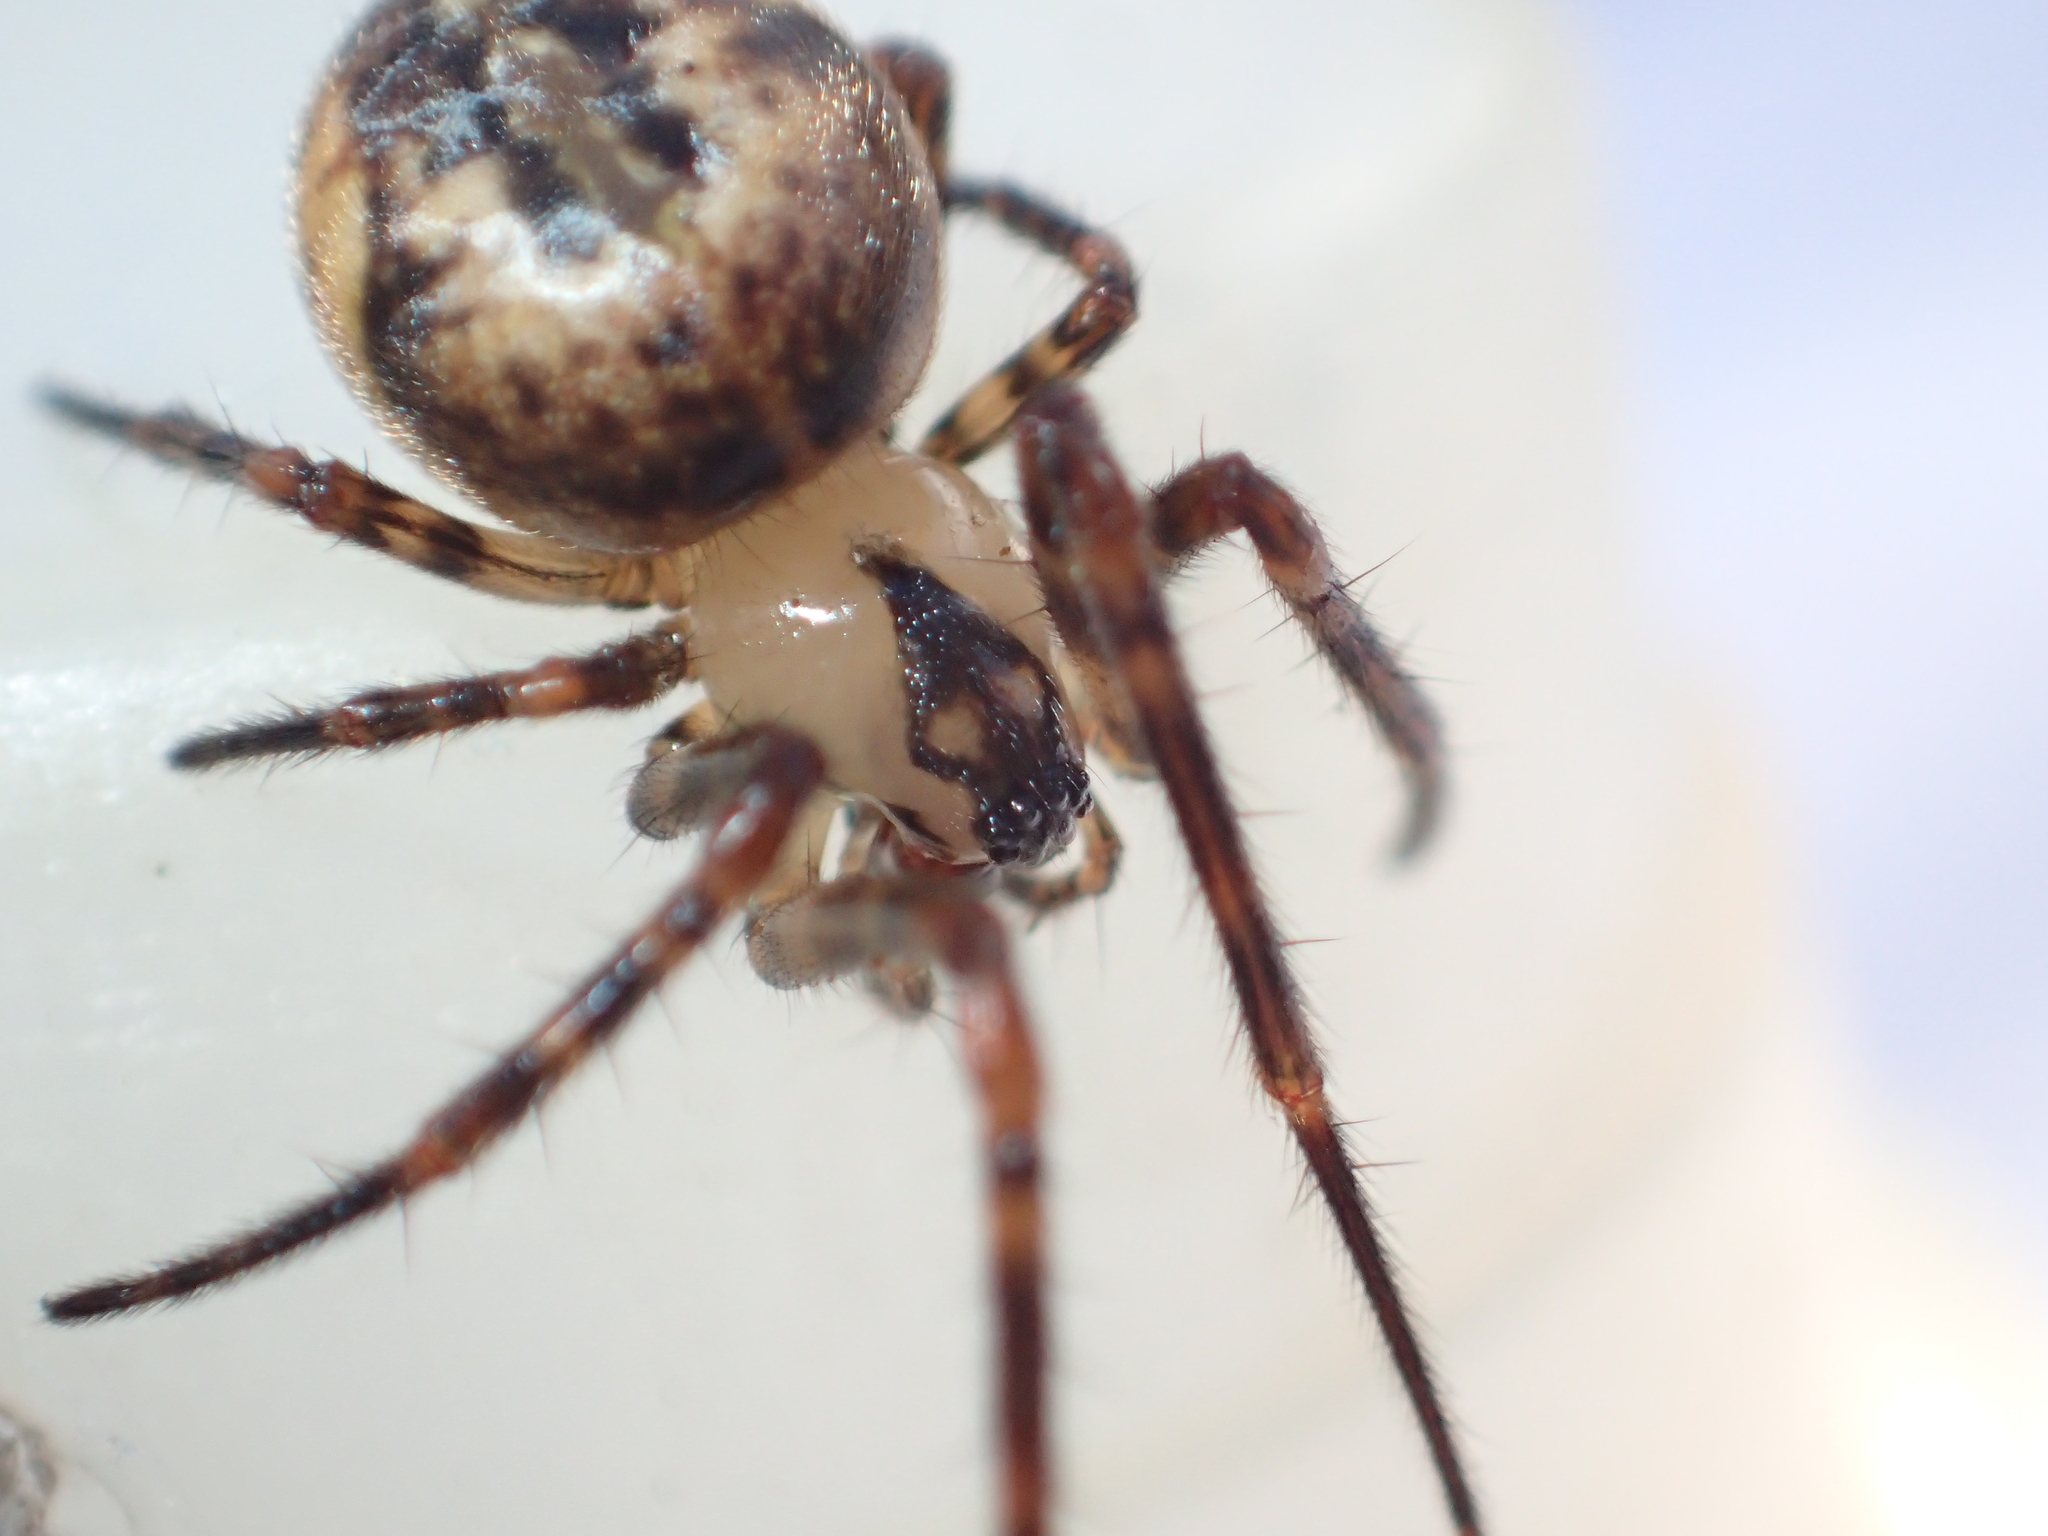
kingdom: Animalia
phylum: Arthropoda
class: Arachnida
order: Araneae
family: Tetragnathidae
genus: Tawhai
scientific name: Tawhai arborea
